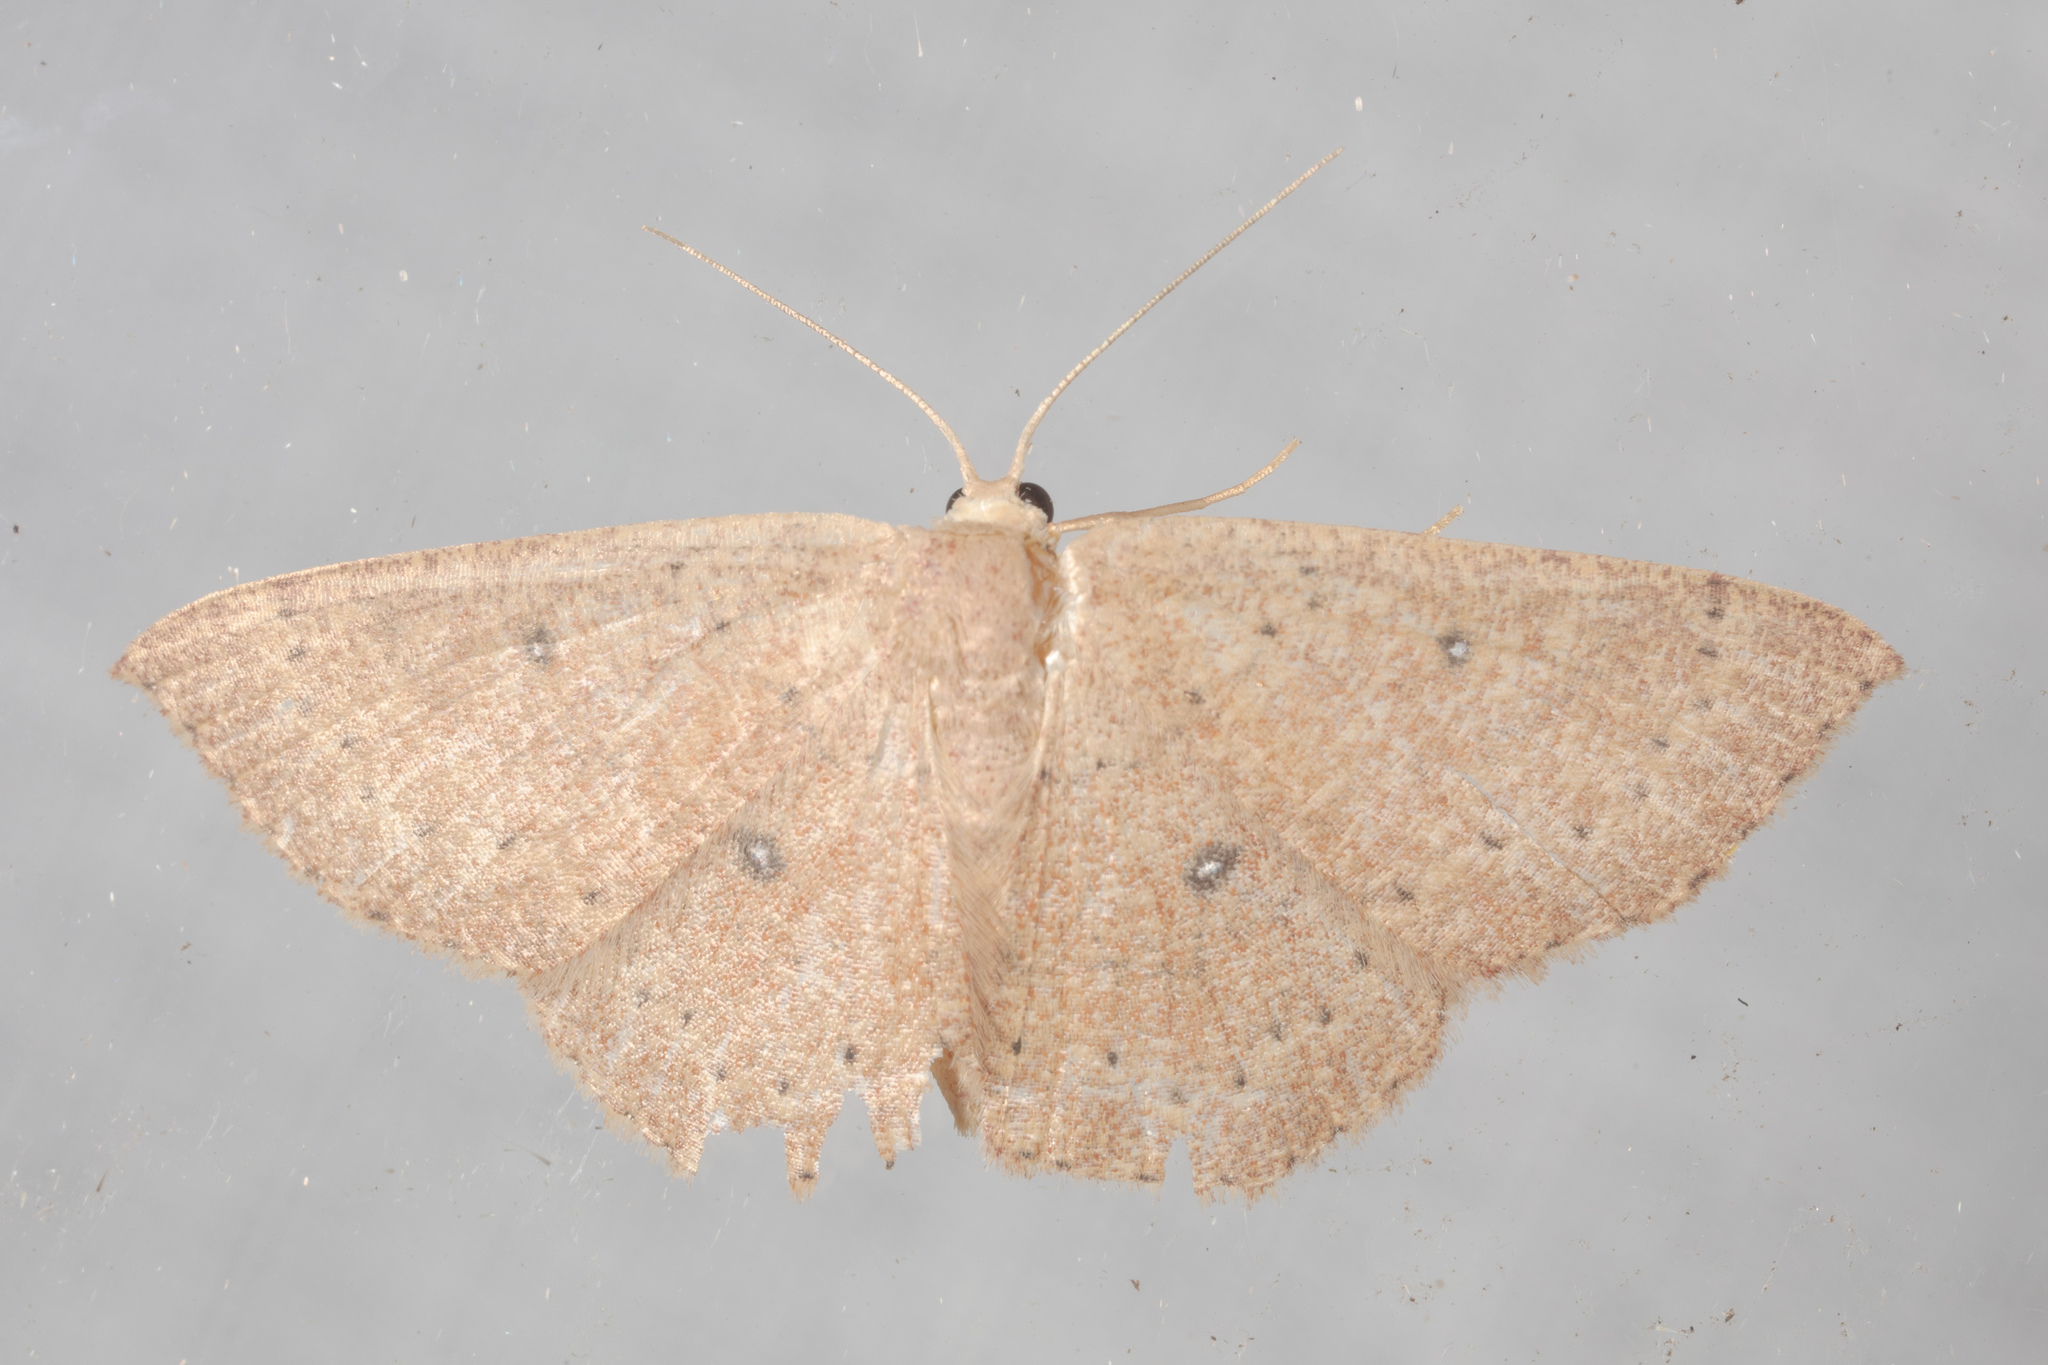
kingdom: Animalia
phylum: Arthropoda
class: Insecta
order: Lepidoptera
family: Geometridae
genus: Cyclophora
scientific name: Cyclophora packardi
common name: Packard's wave
